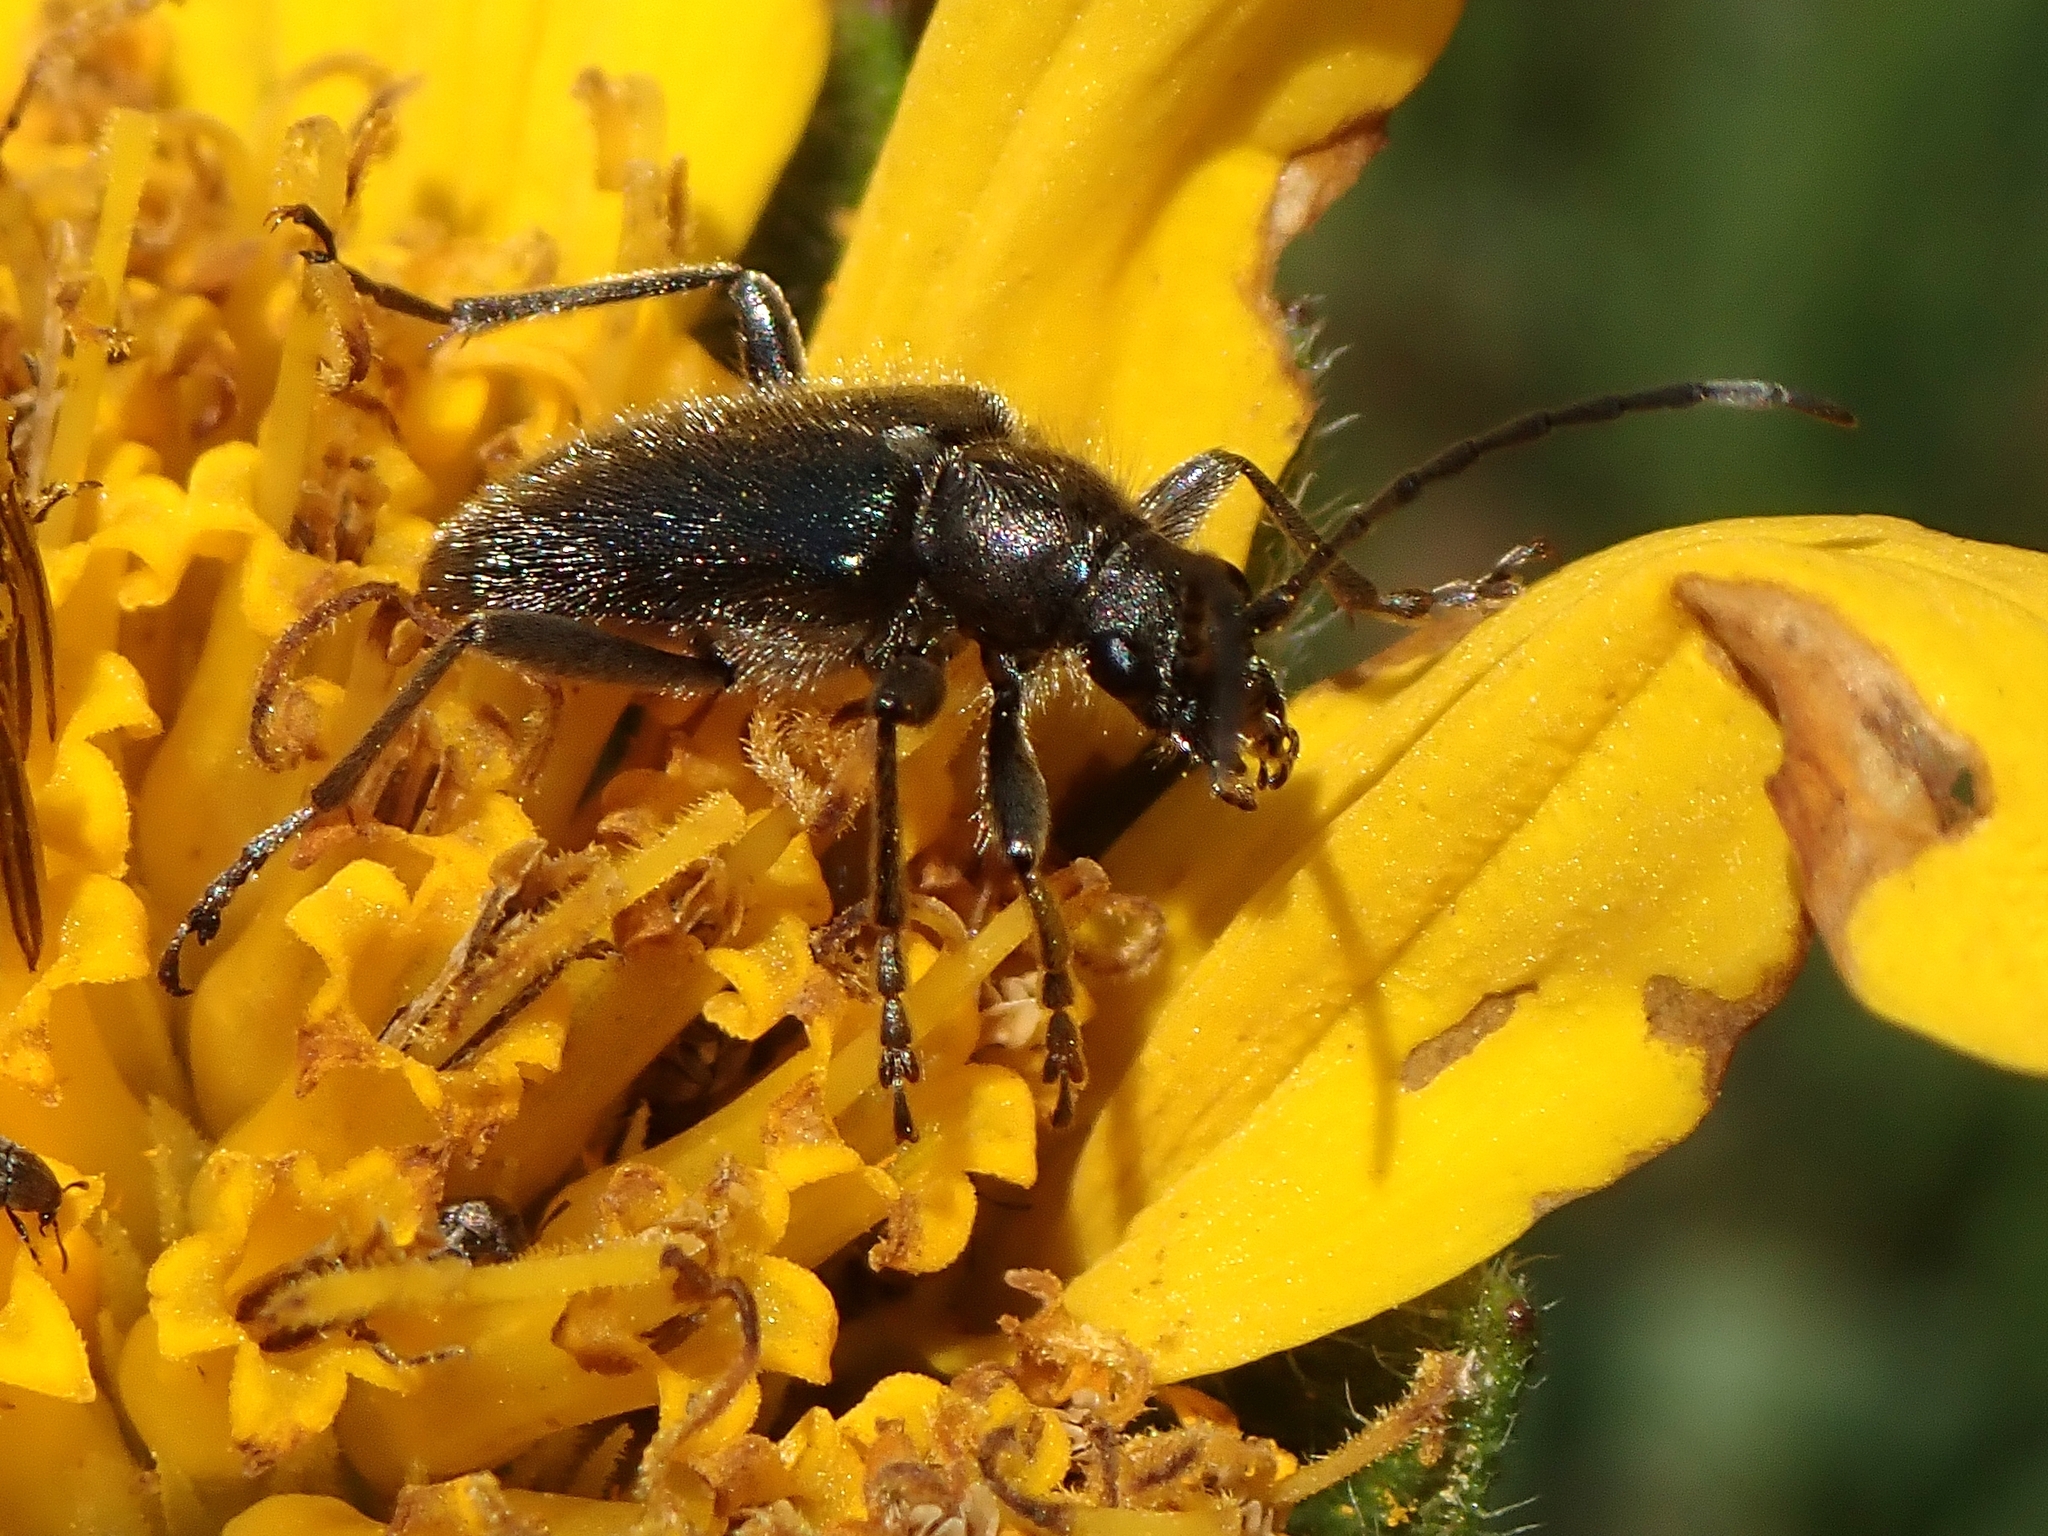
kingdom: Animalia
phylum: Arthropoda
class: Insecta
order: Coleoptera
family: Cerambycidae
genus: Brachysomida
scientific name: Brachysomida californica
